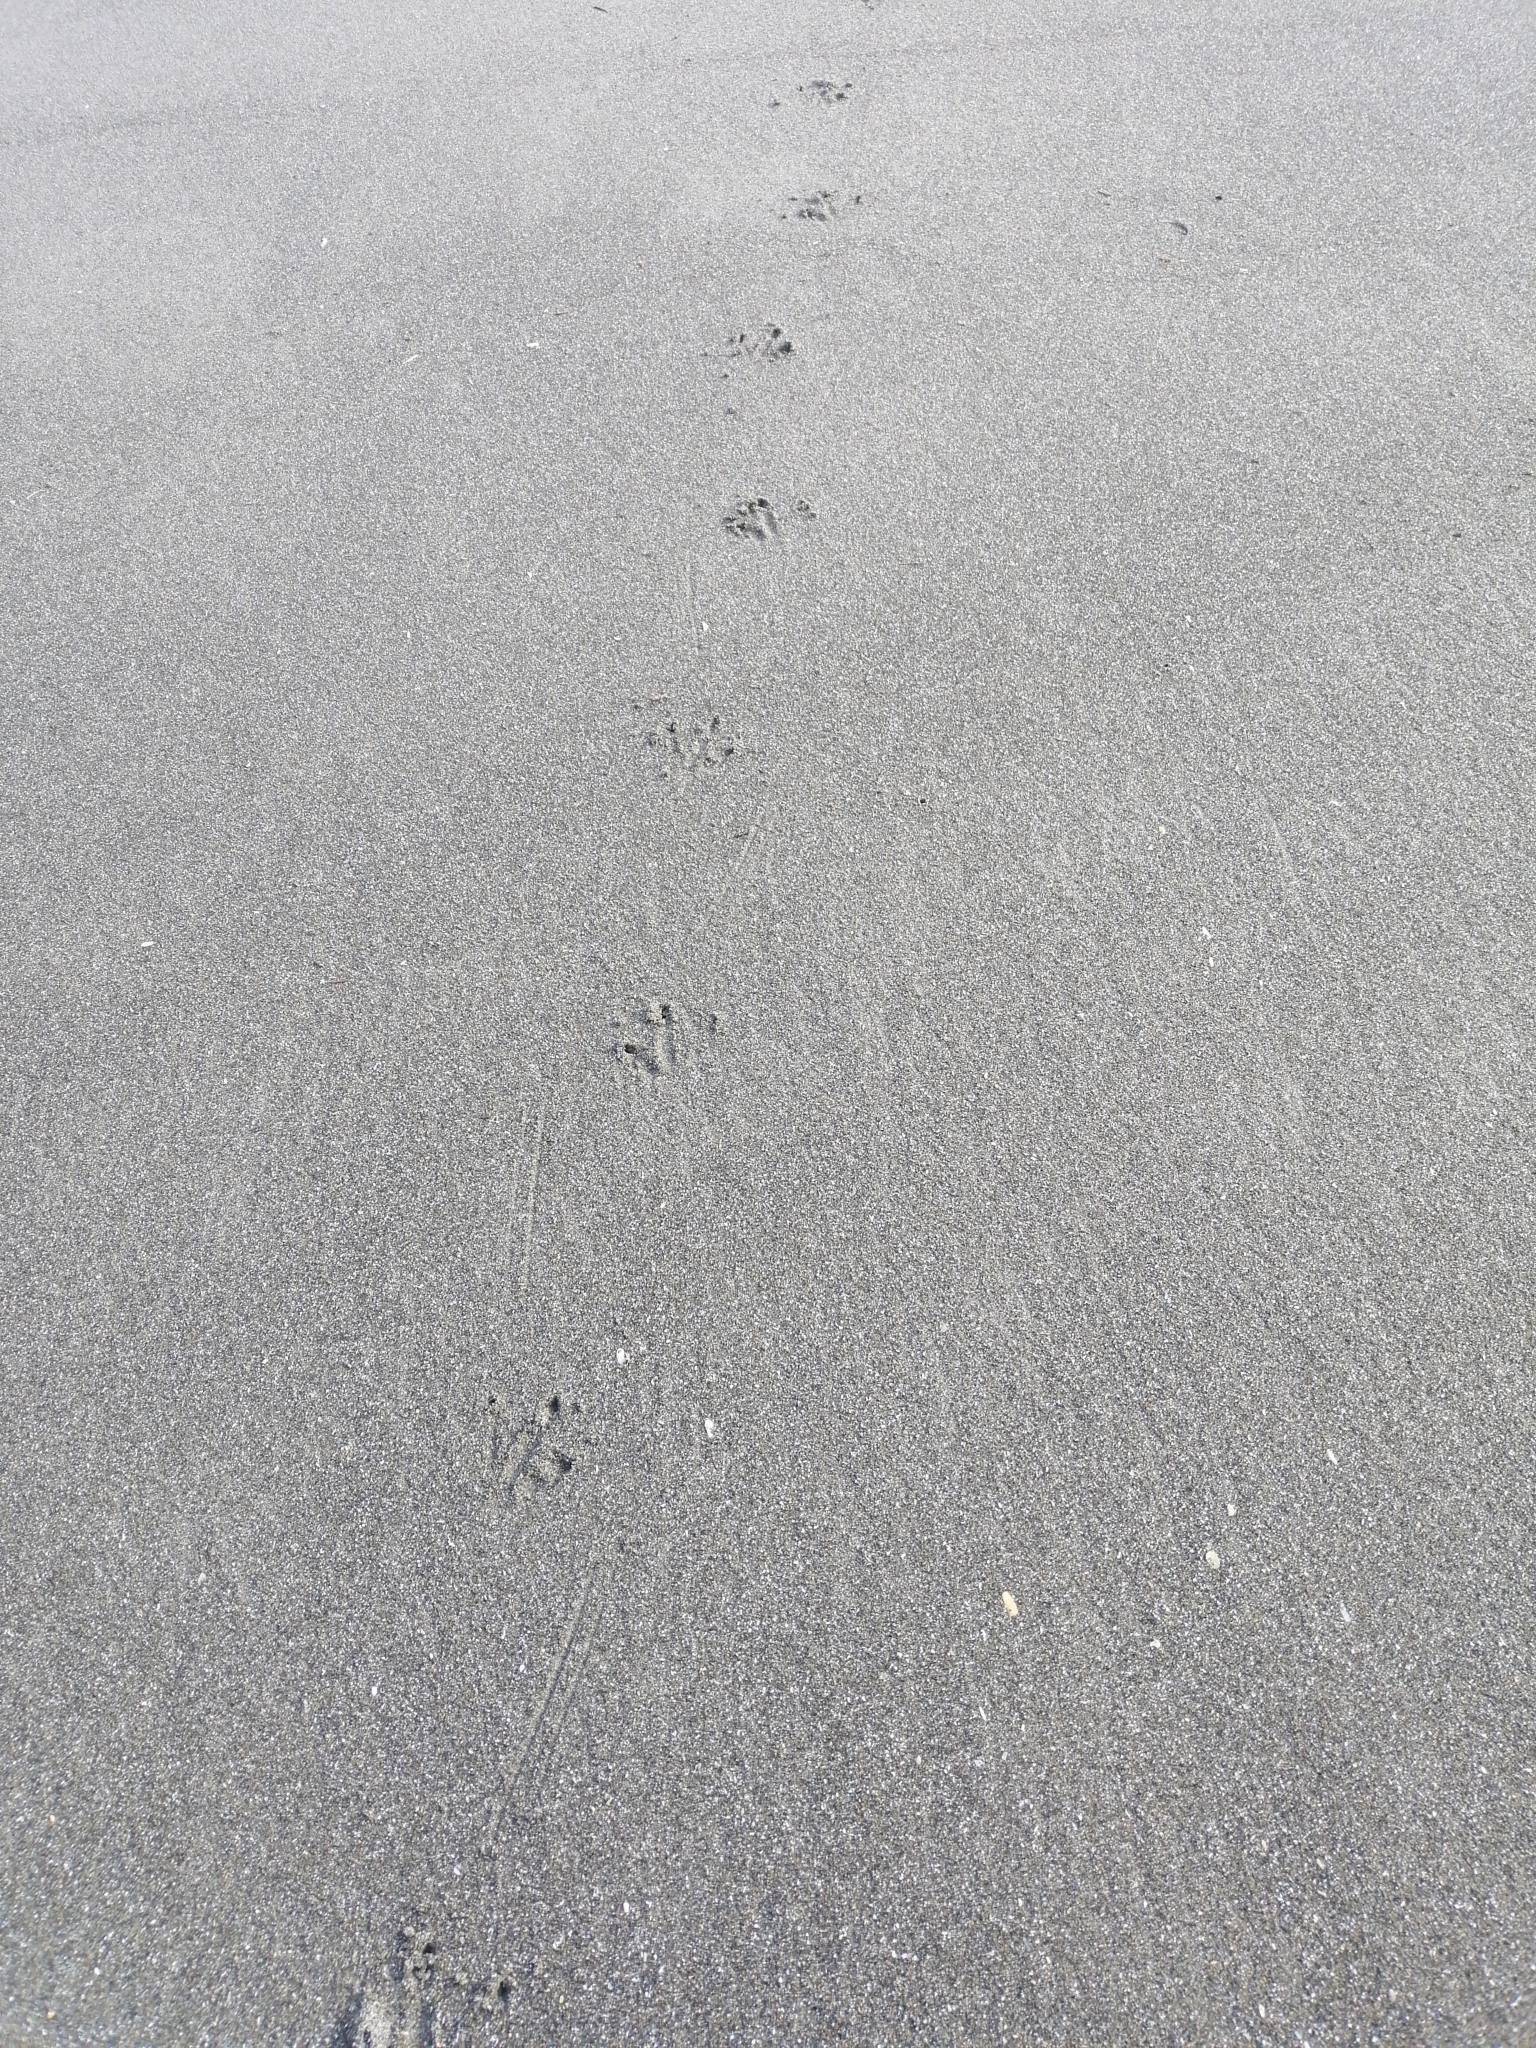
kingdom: Animalia
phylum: Chordata
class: Aves
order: Sphenisciformes
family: Spheniscidae
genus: Eudyptula
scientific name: Eudyptula minor
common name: Little penguin
